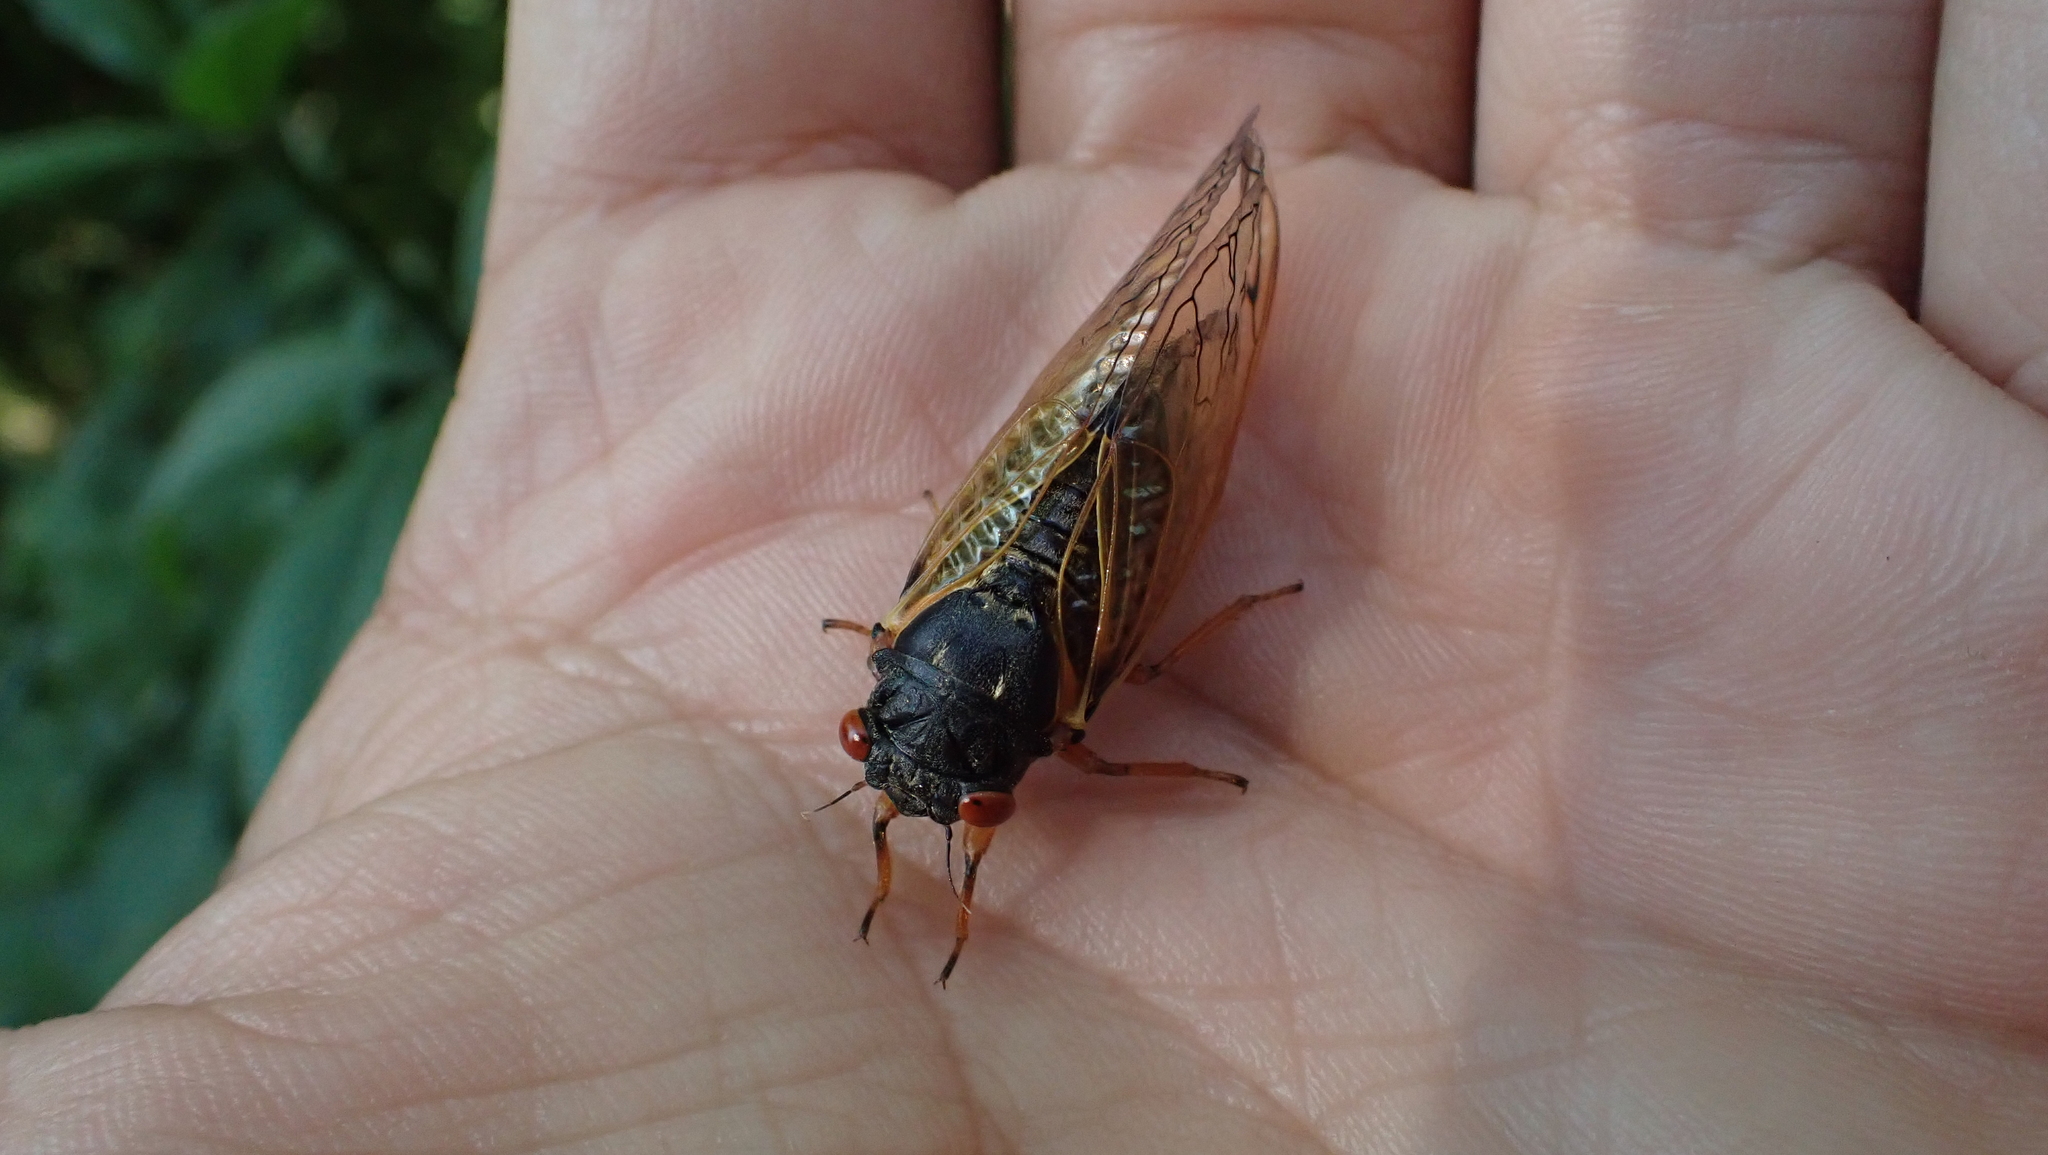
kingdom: Animalia
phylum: Arthropoda
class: Insecta
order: Hemiptera
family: Cicadidae
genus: Magicicada
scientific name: Magicicada cassini
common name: Cassin's 17-year cicada
